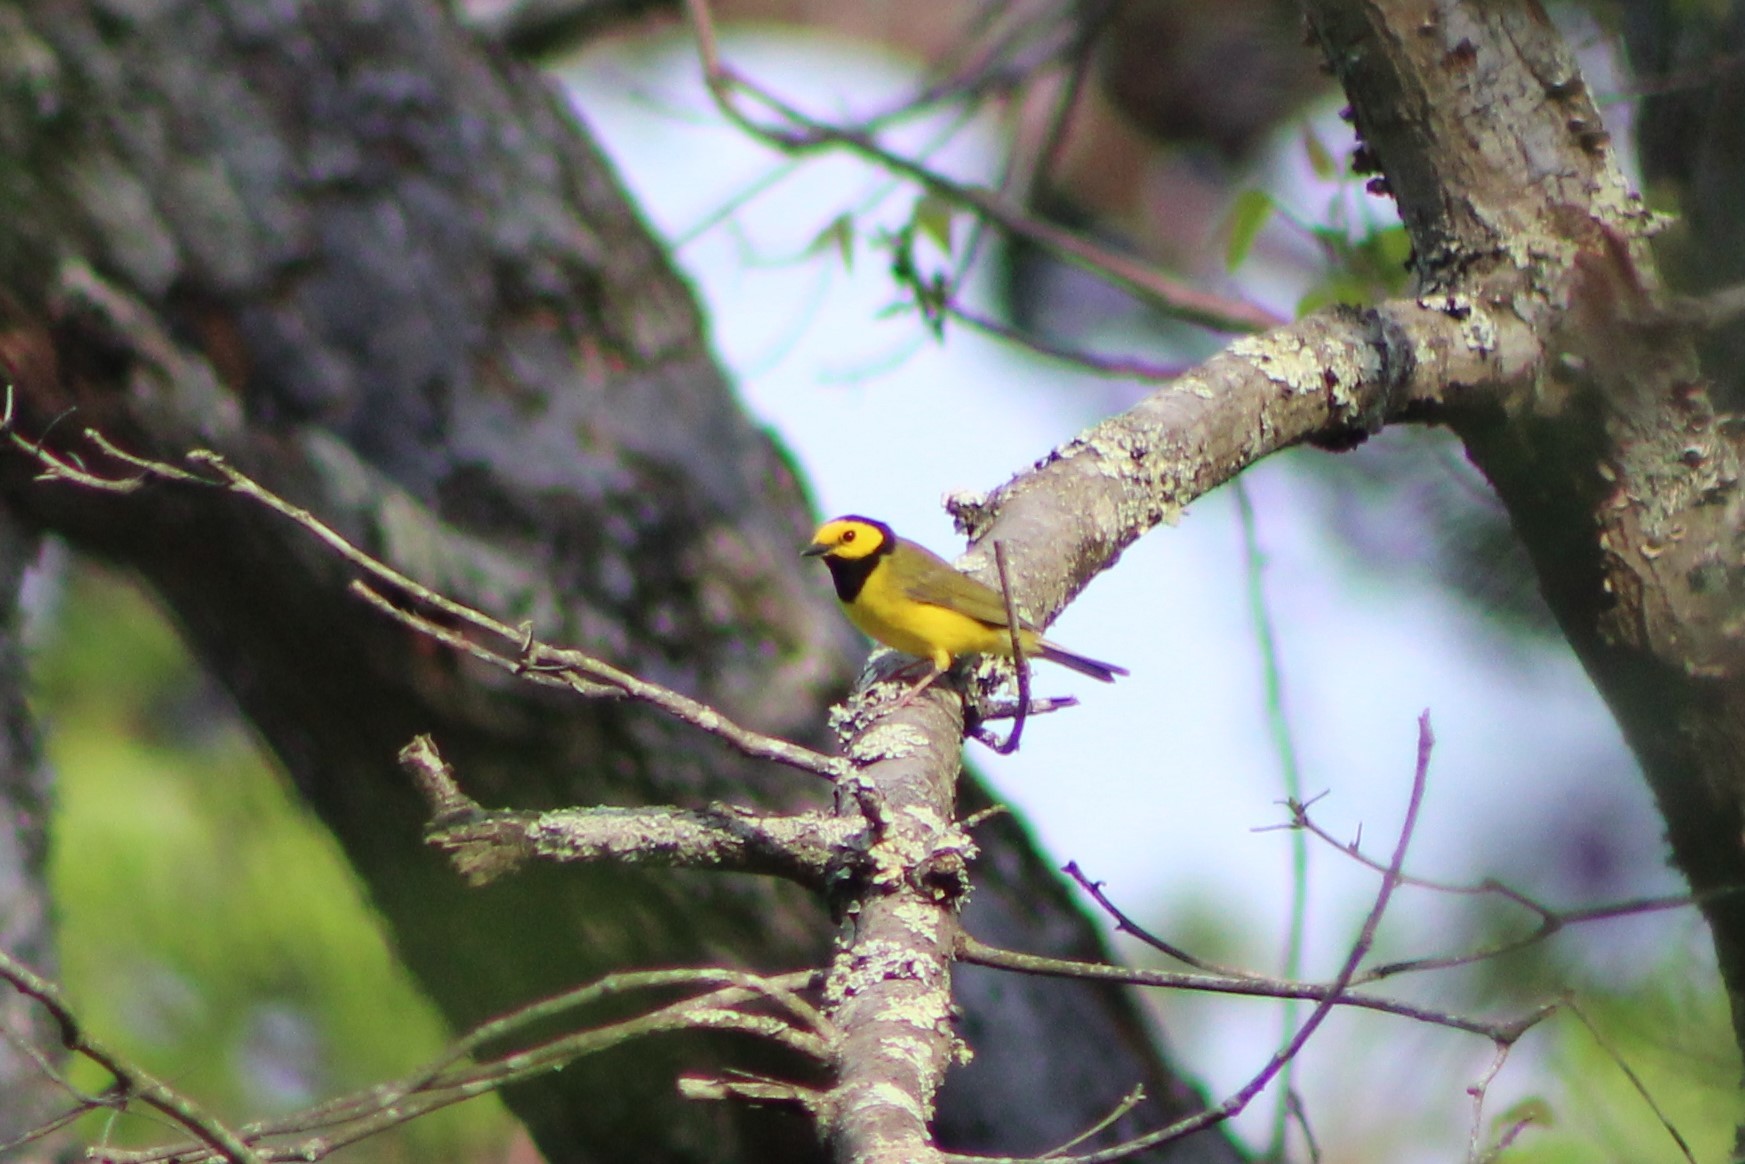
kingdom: Animalia
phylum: Chordata
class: Aves
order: Passeriformes
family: Parulidae
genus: Setophaga
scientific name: Setophaga citrina
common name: Hooded warbler
